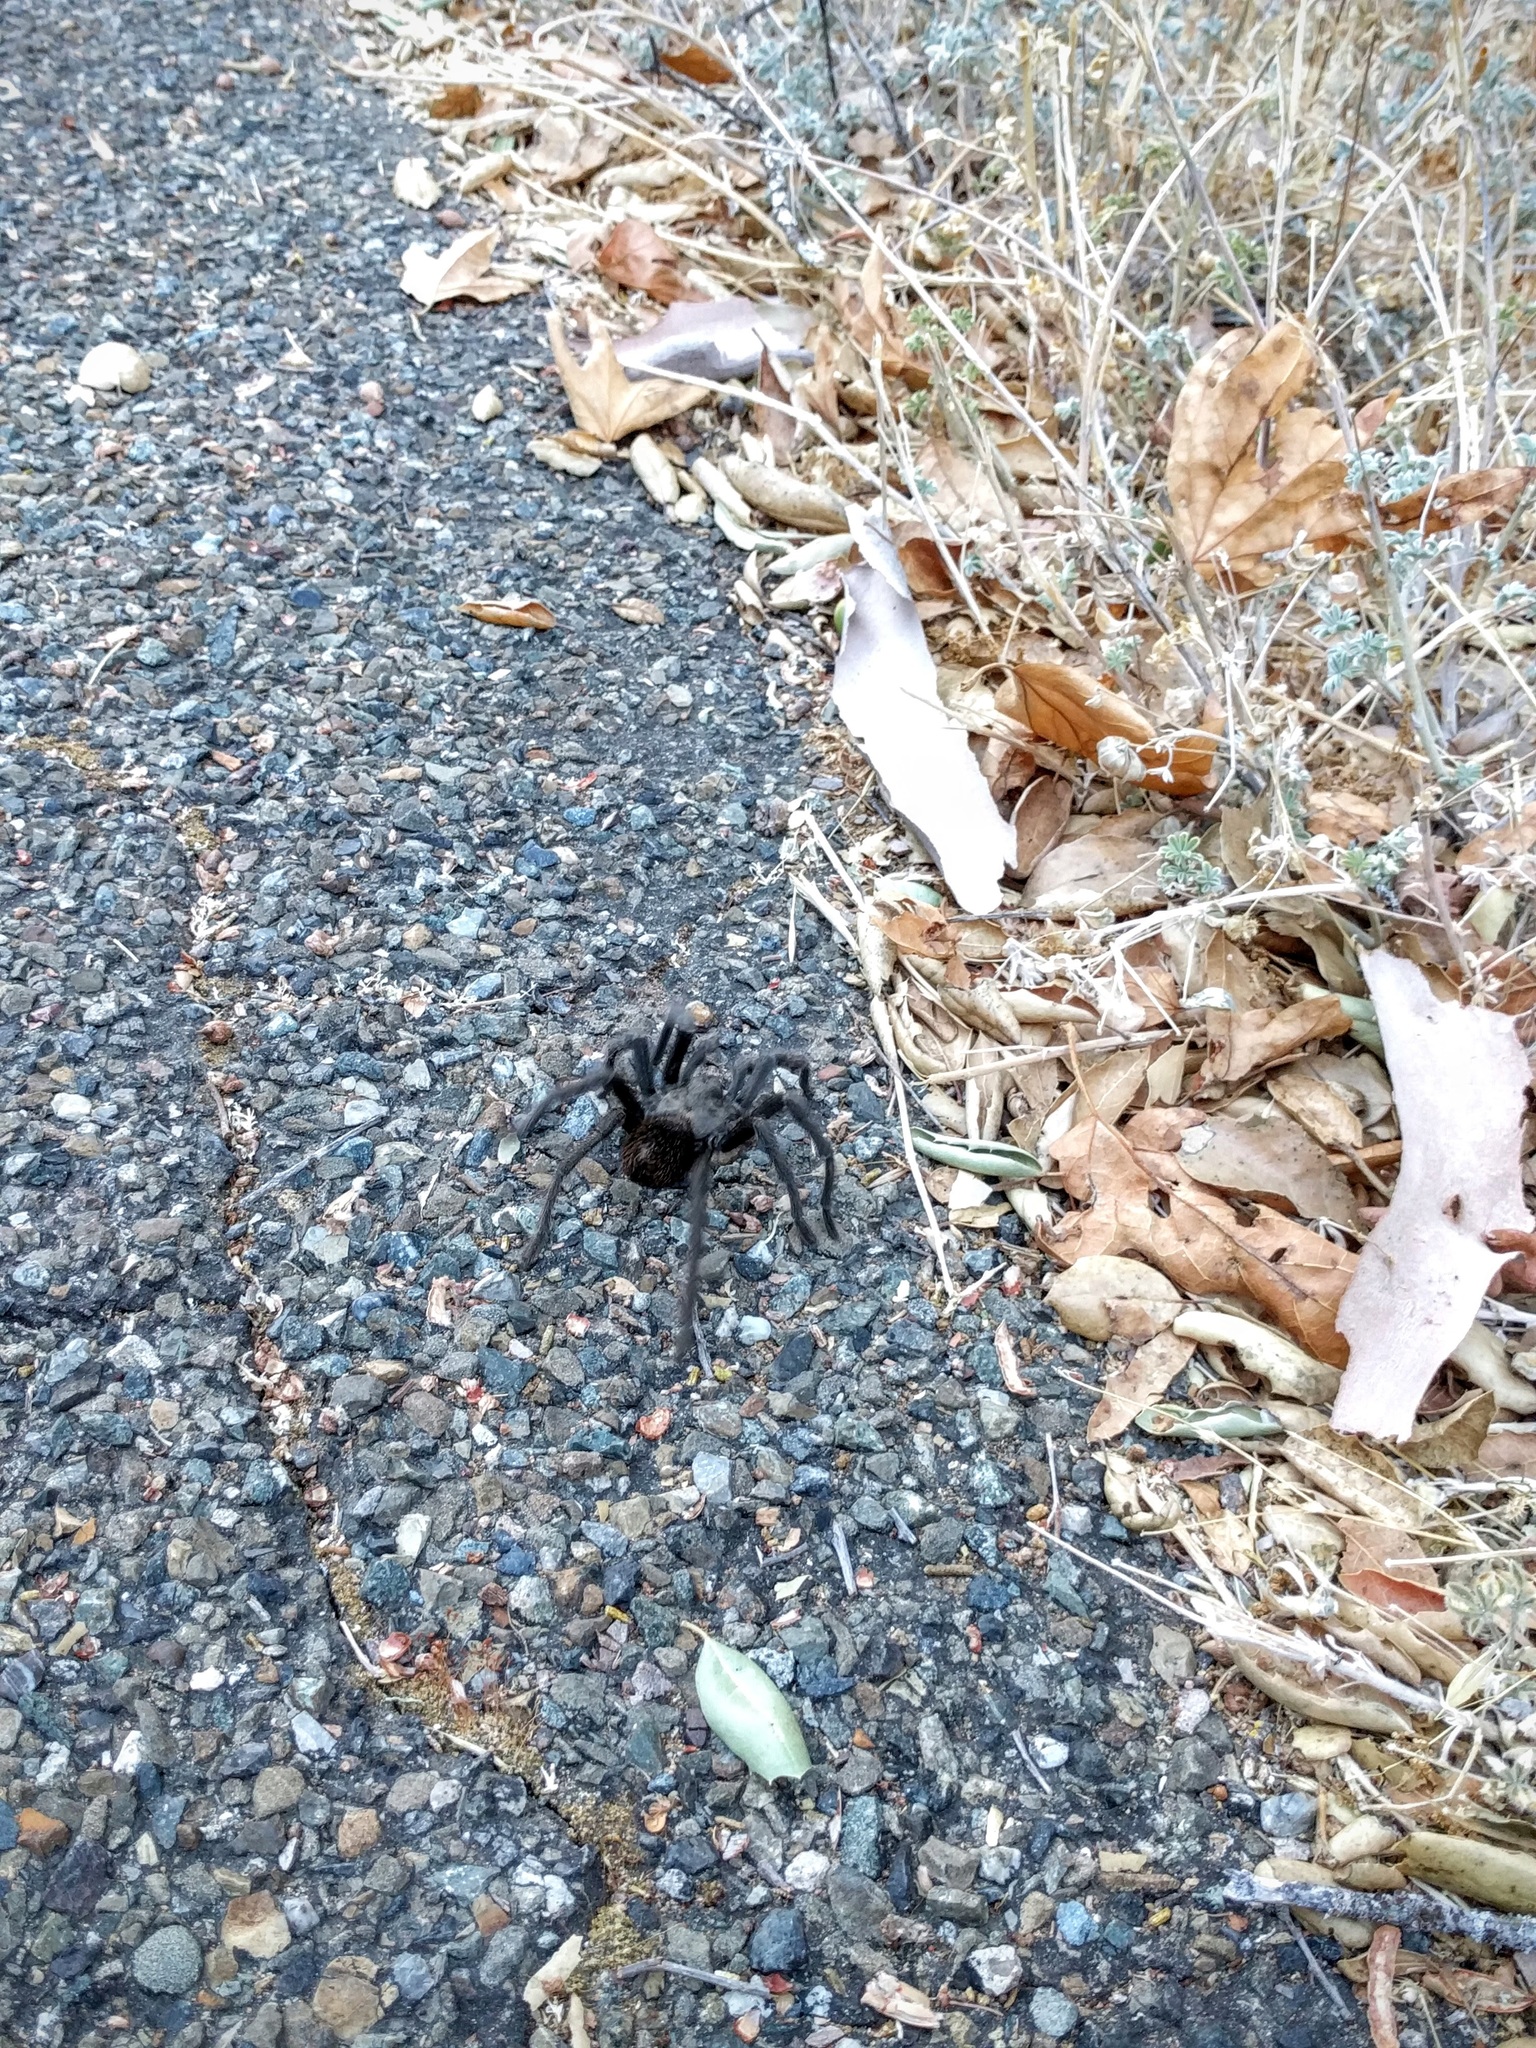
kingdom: Animalia
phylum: Arthropoda
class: Arachnida
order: Araneae
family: Theraphosidae
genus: Aphonopelma
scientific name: Aphonopelma iodius
